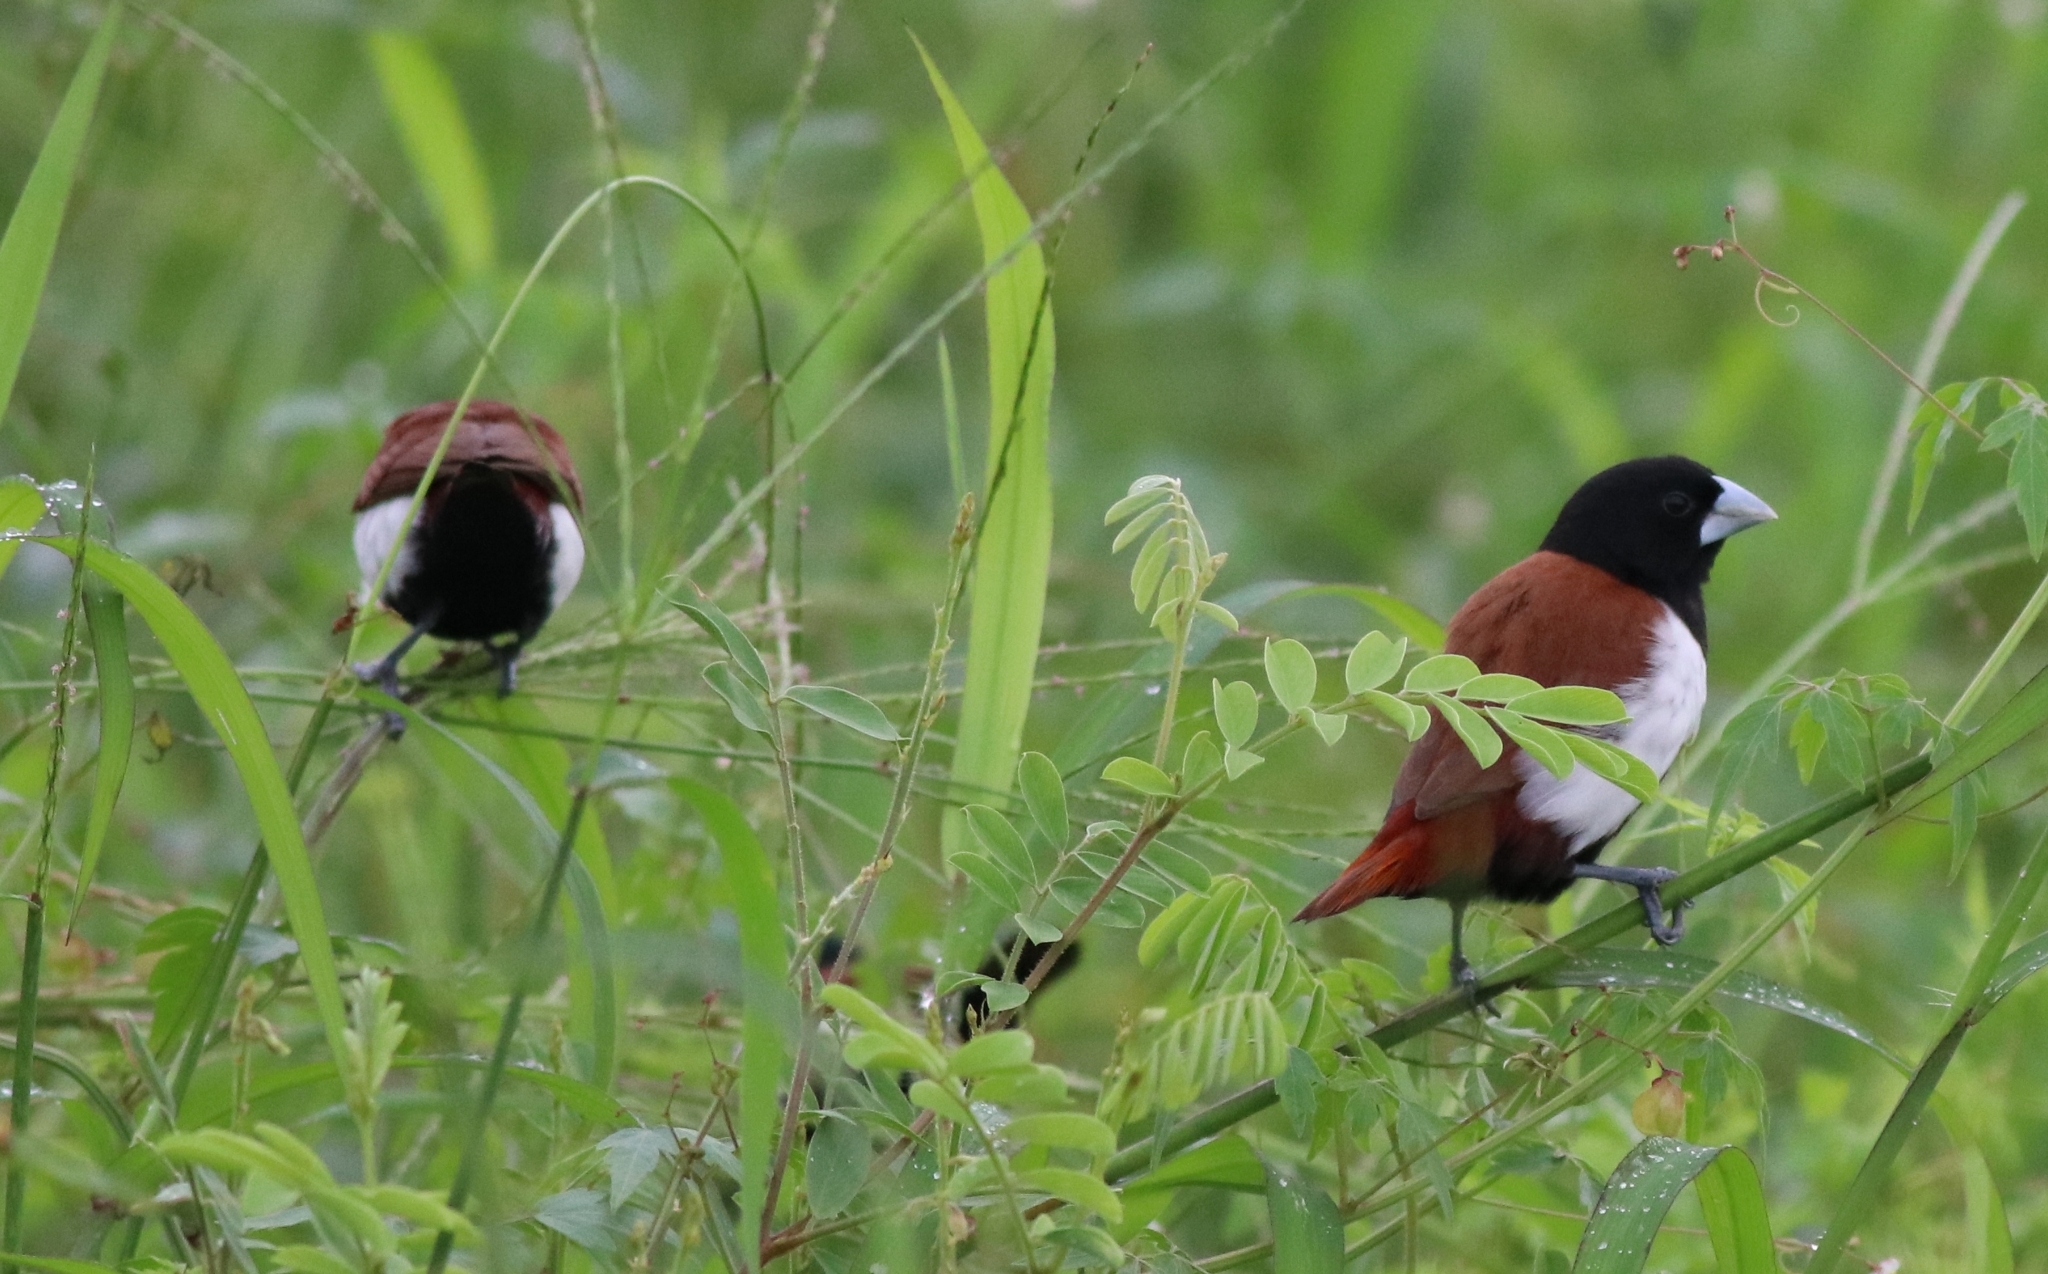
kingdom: Animalia
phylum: Chordata
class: Aves
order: Passeriformes
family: Estrildidae
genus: Lonchura
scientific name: Lonchura malacca
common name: Tricolored munia
